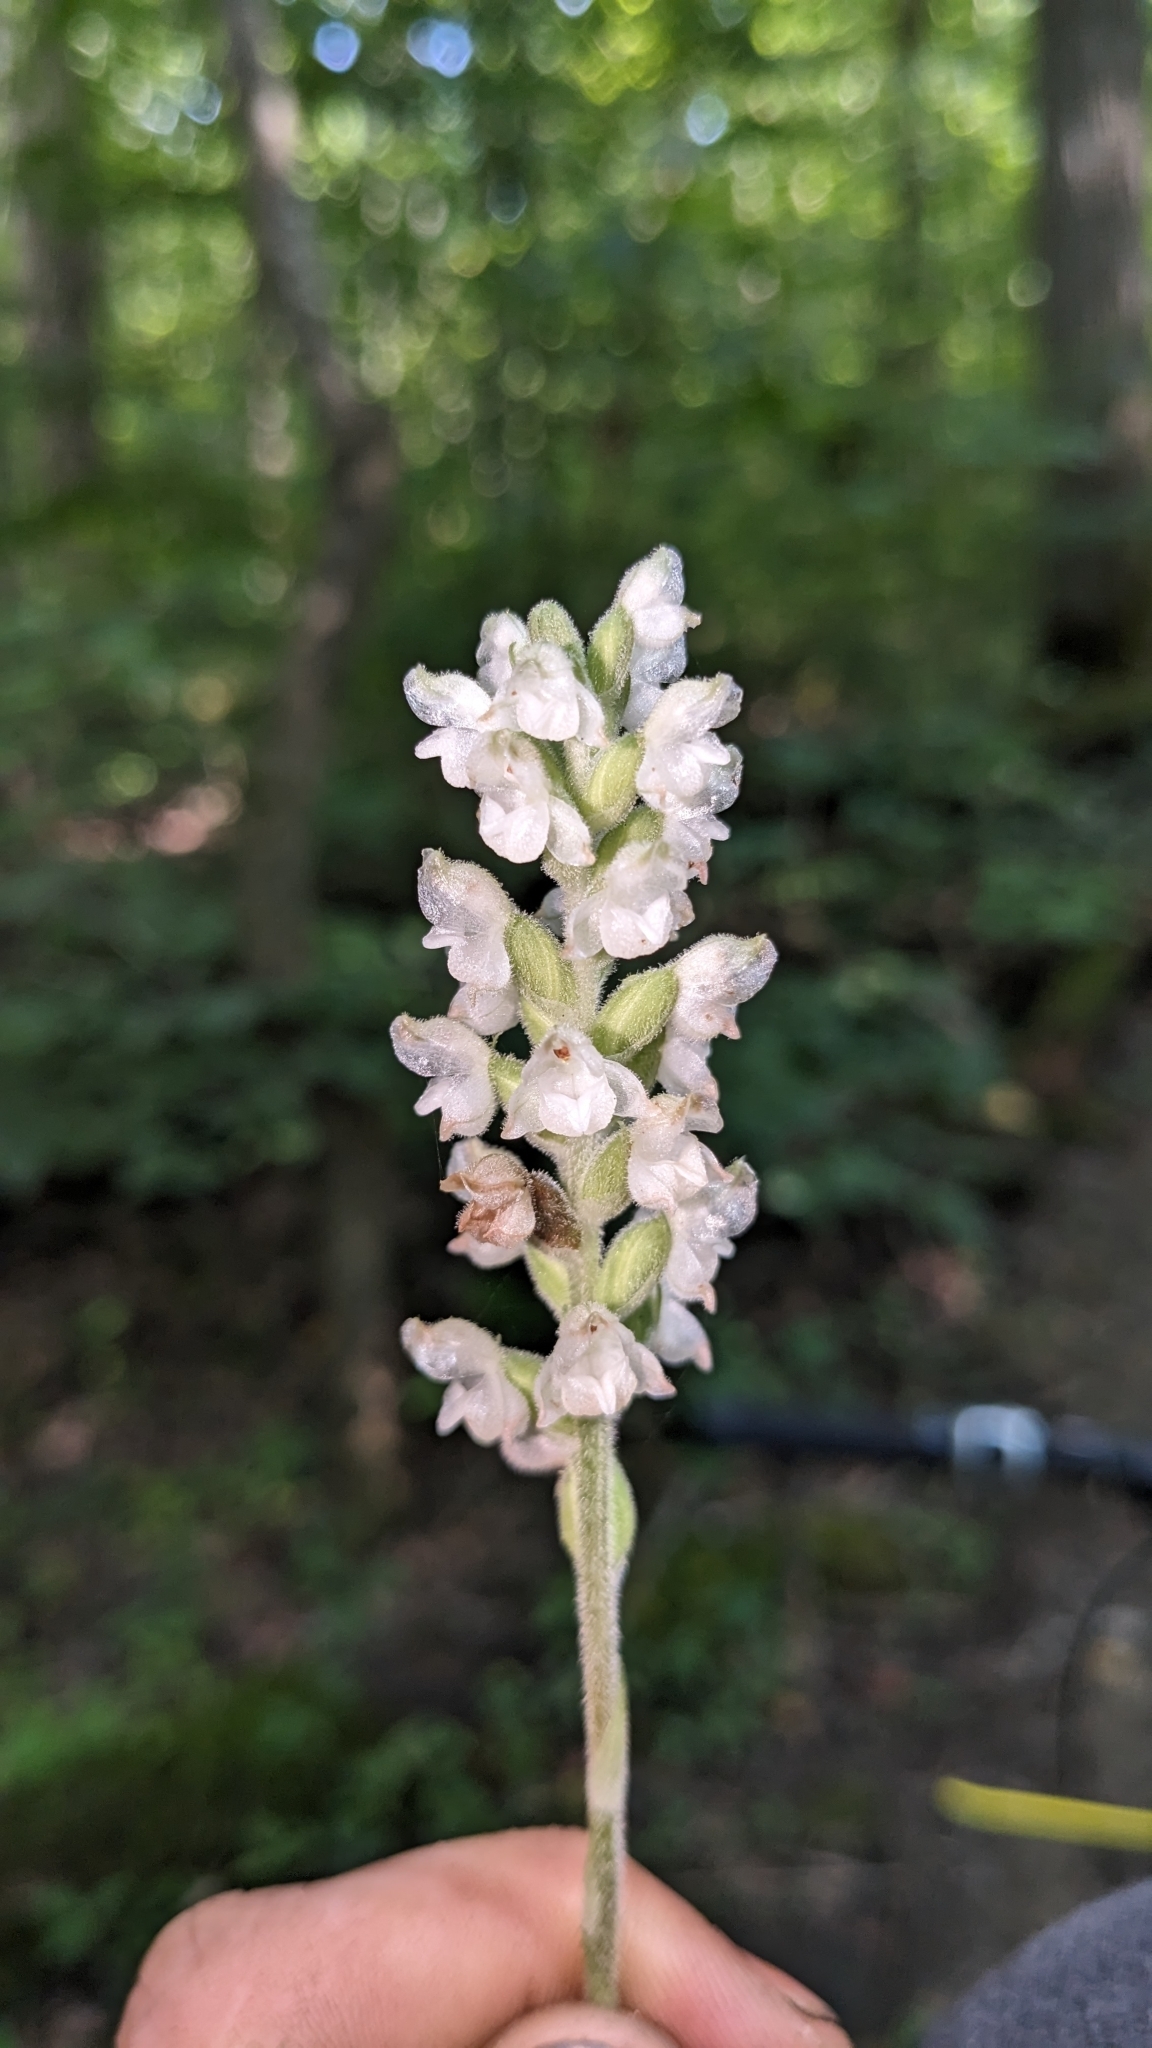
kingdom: Plantae
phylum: Tracheophyta
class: Liliopsida
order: Asparagales
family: Orchidaceae
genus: Goodyera
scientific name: Goodyera pubescens
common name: Downy rattlesnake-plantain
